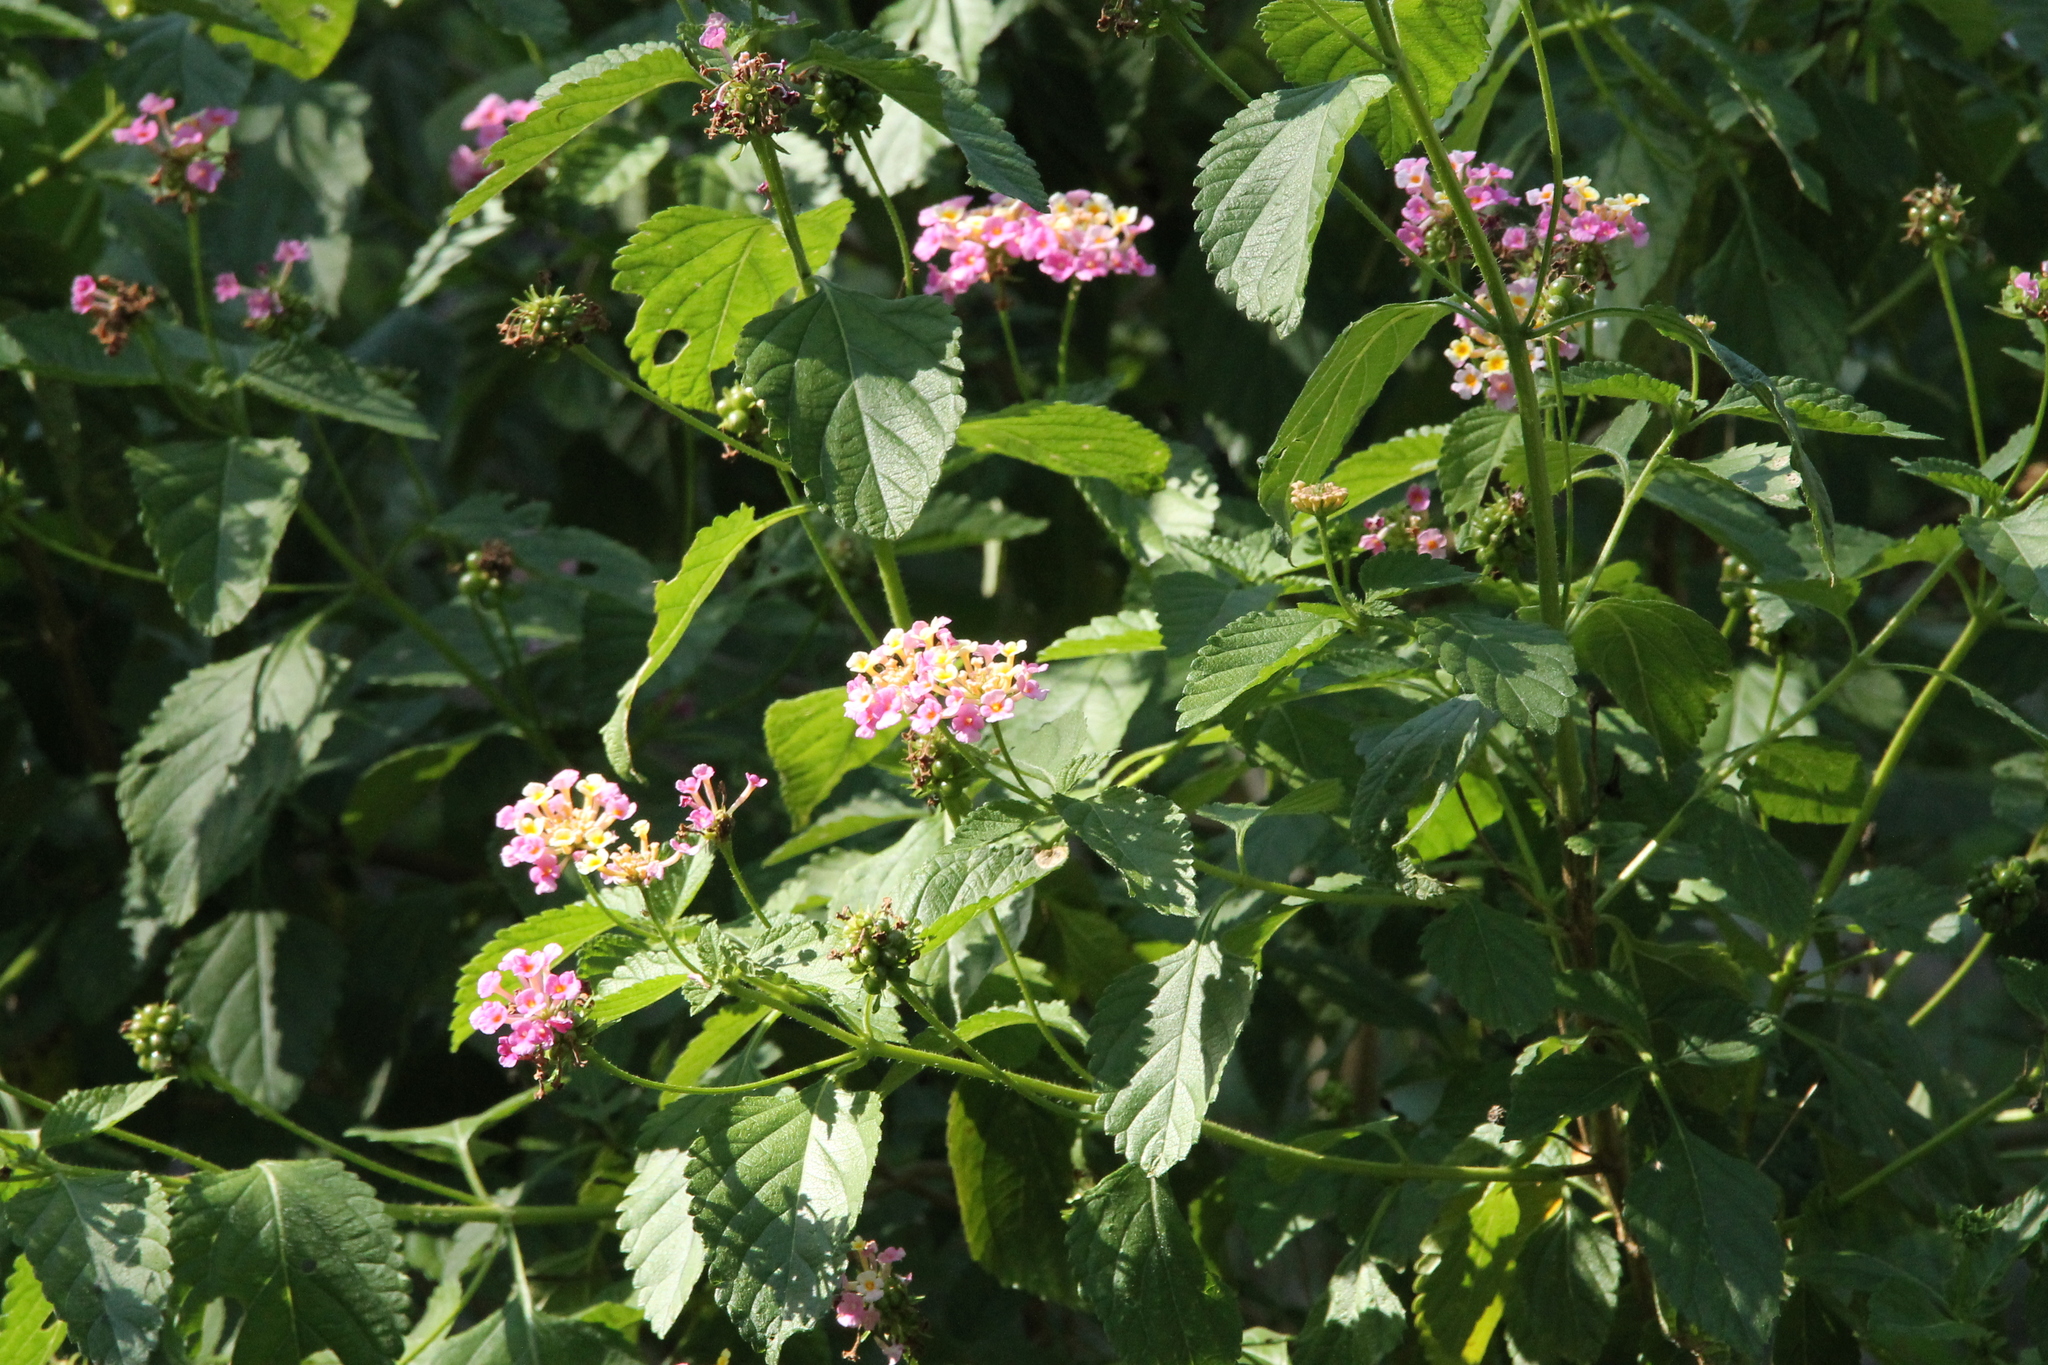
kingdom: Plantae
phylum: Tracheophyta
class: Magnoliopsida
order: Lamiales
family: Verbenaceae
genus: Lantana
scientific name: Lantana strigocamara
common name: Lantana
